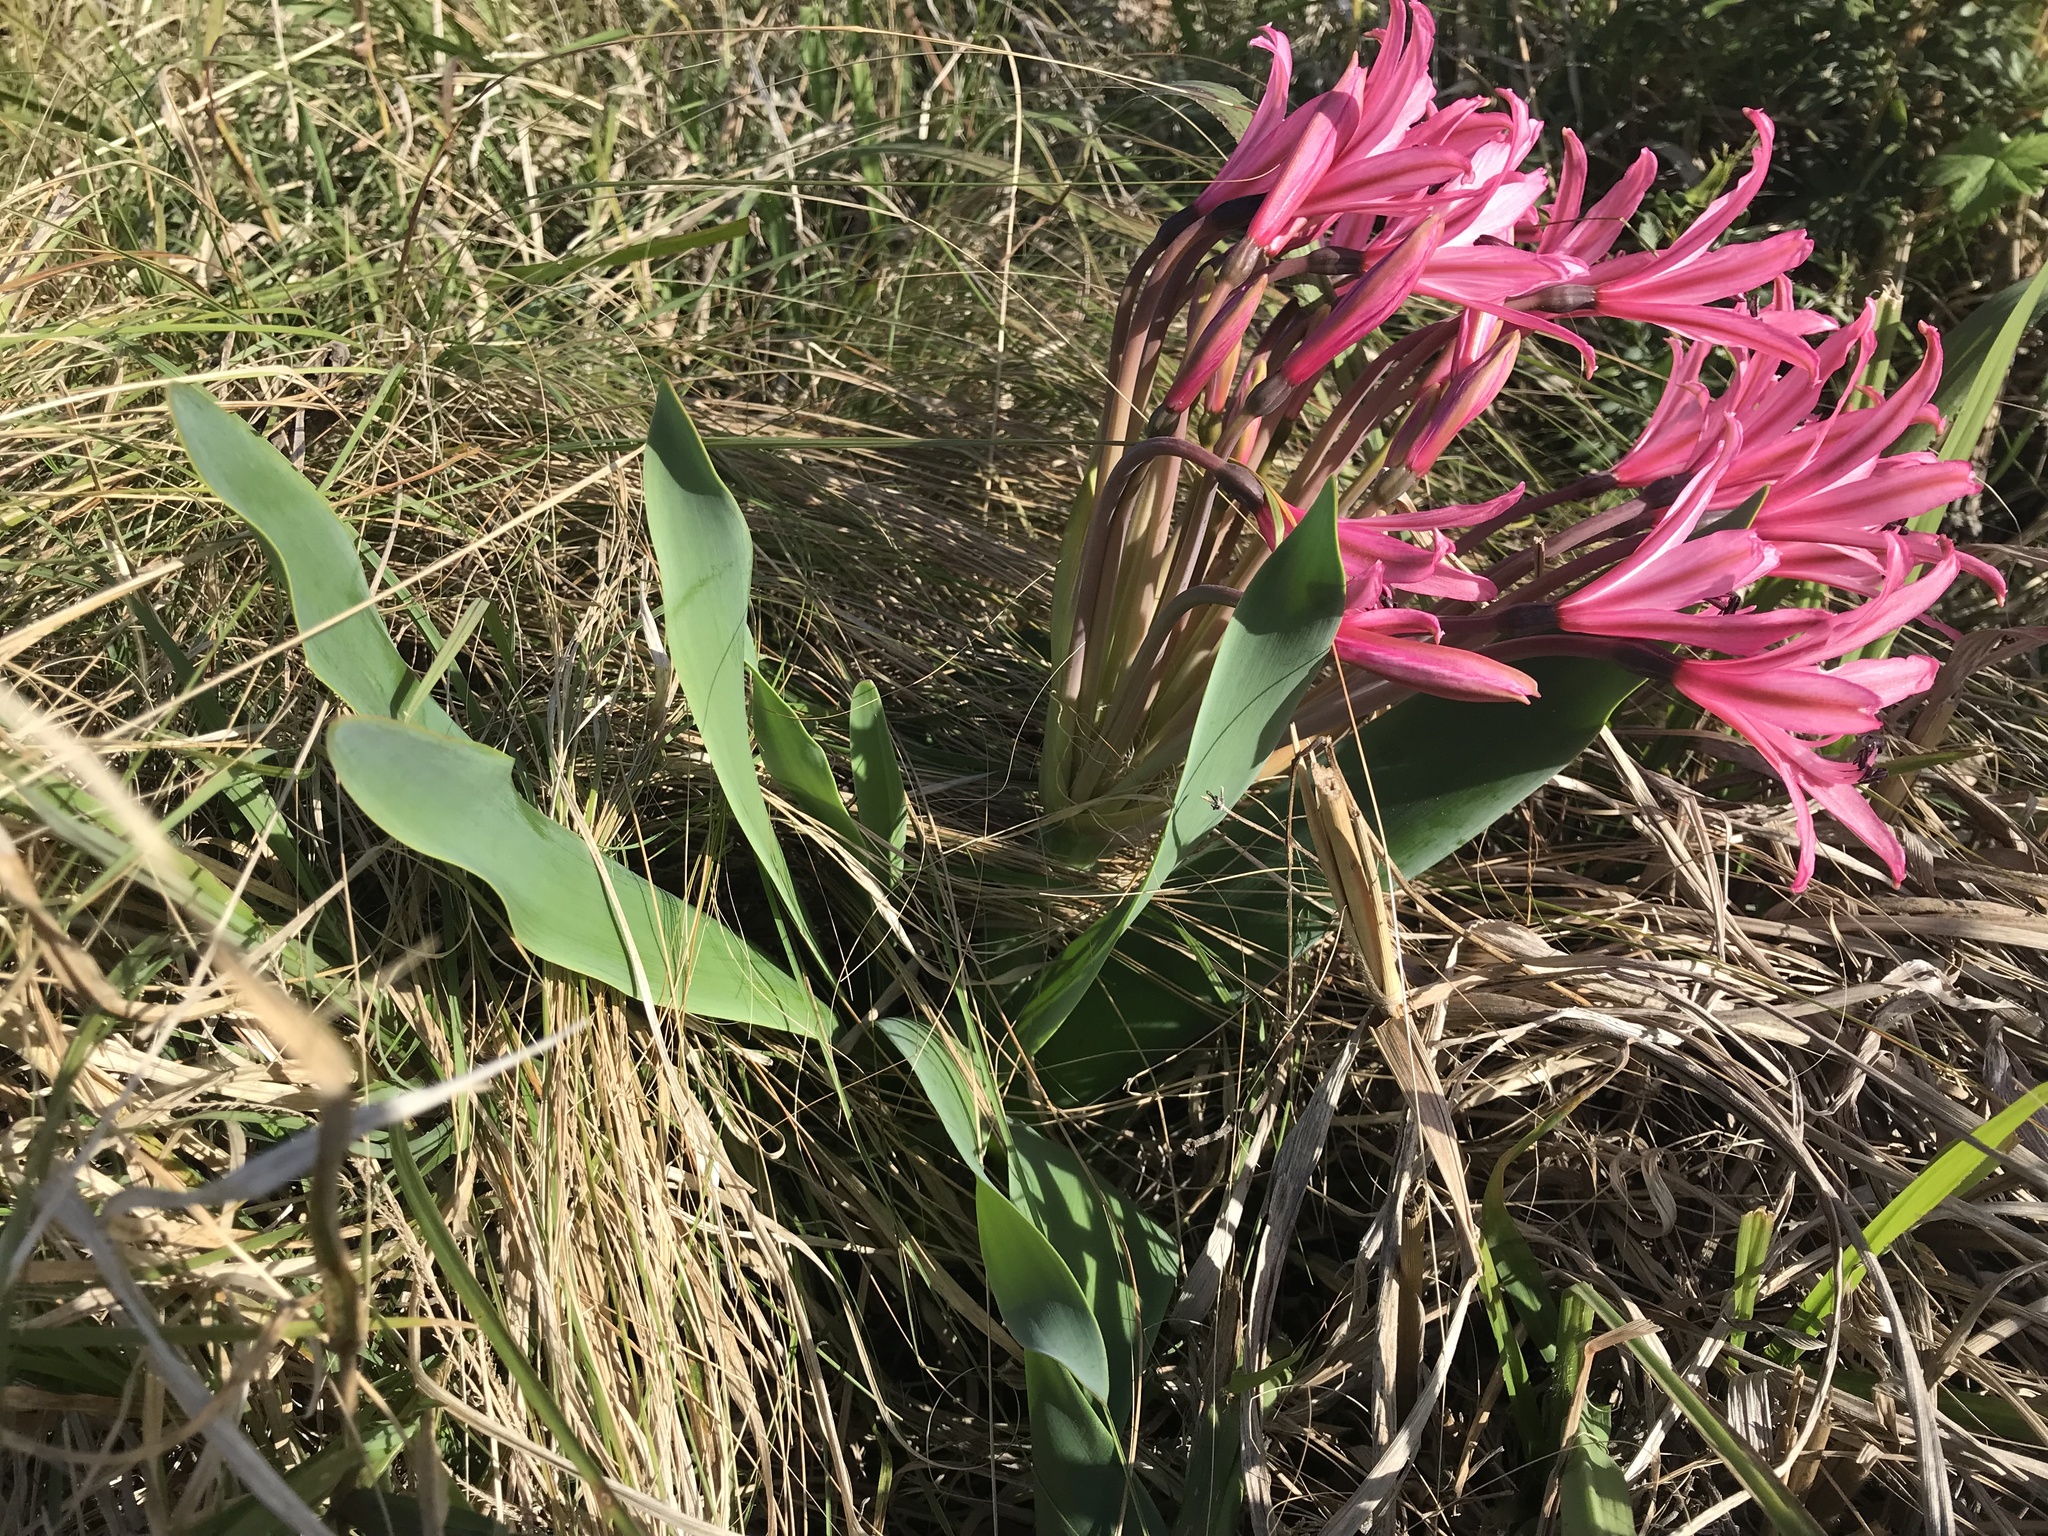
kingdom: Plantae
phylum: Tracheophyta
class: Liliopsida
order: Asparagales
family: Amaryllidaceae
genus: Brunsvigia
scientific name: Brunsvigia grandiflora
